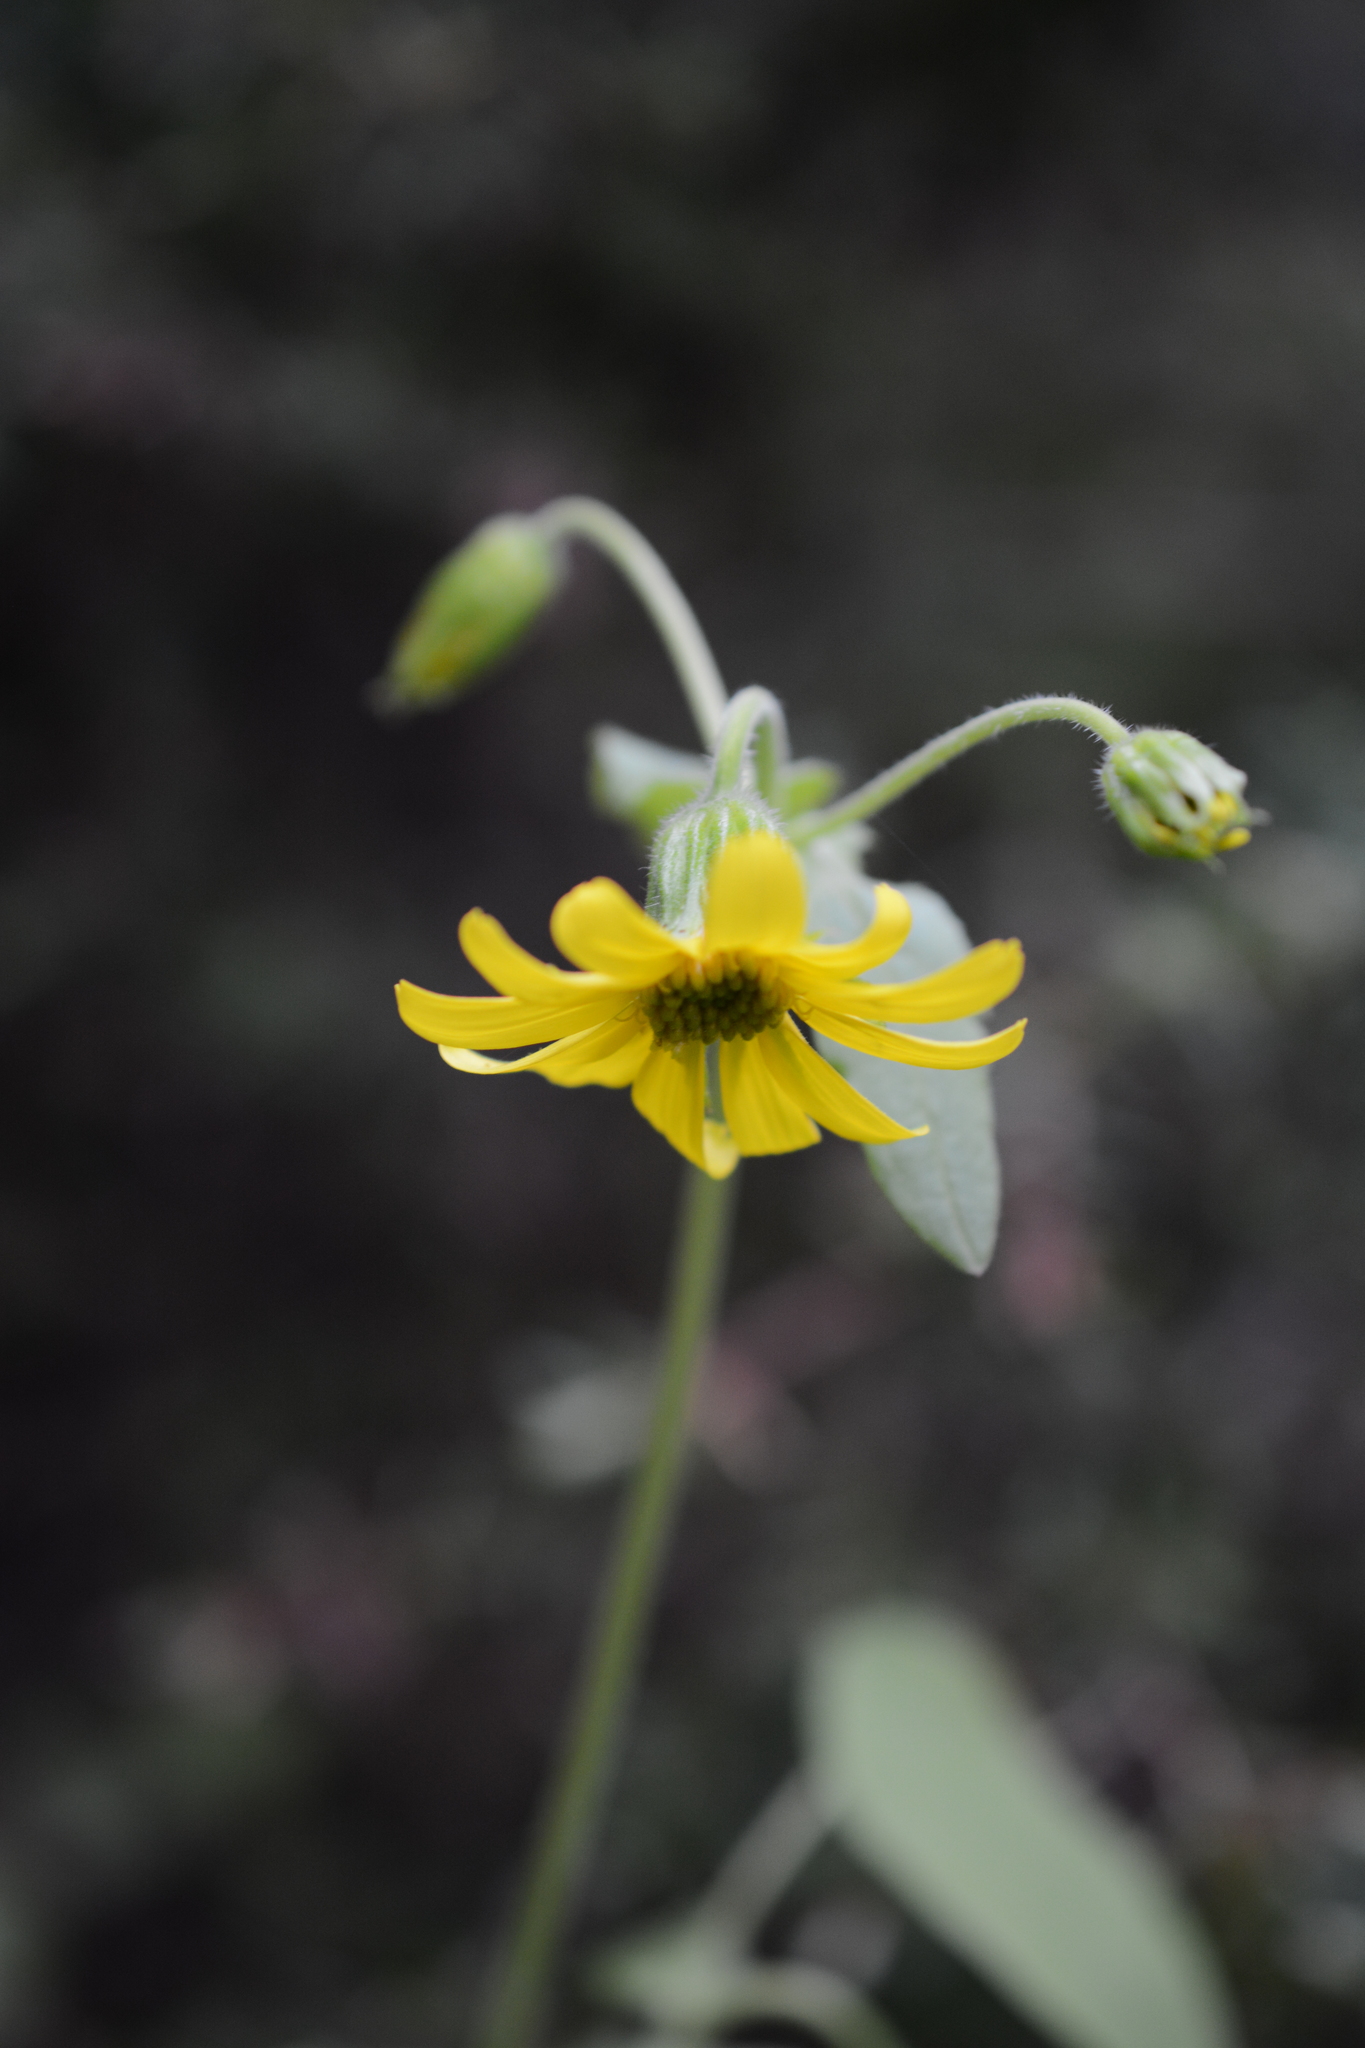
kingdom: Plantae
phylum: Tracheophyta
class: Magnoliopsida
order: Asterales
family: Asteraceae
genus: Arnica
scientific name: Arnica latifolia
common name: Arnica
